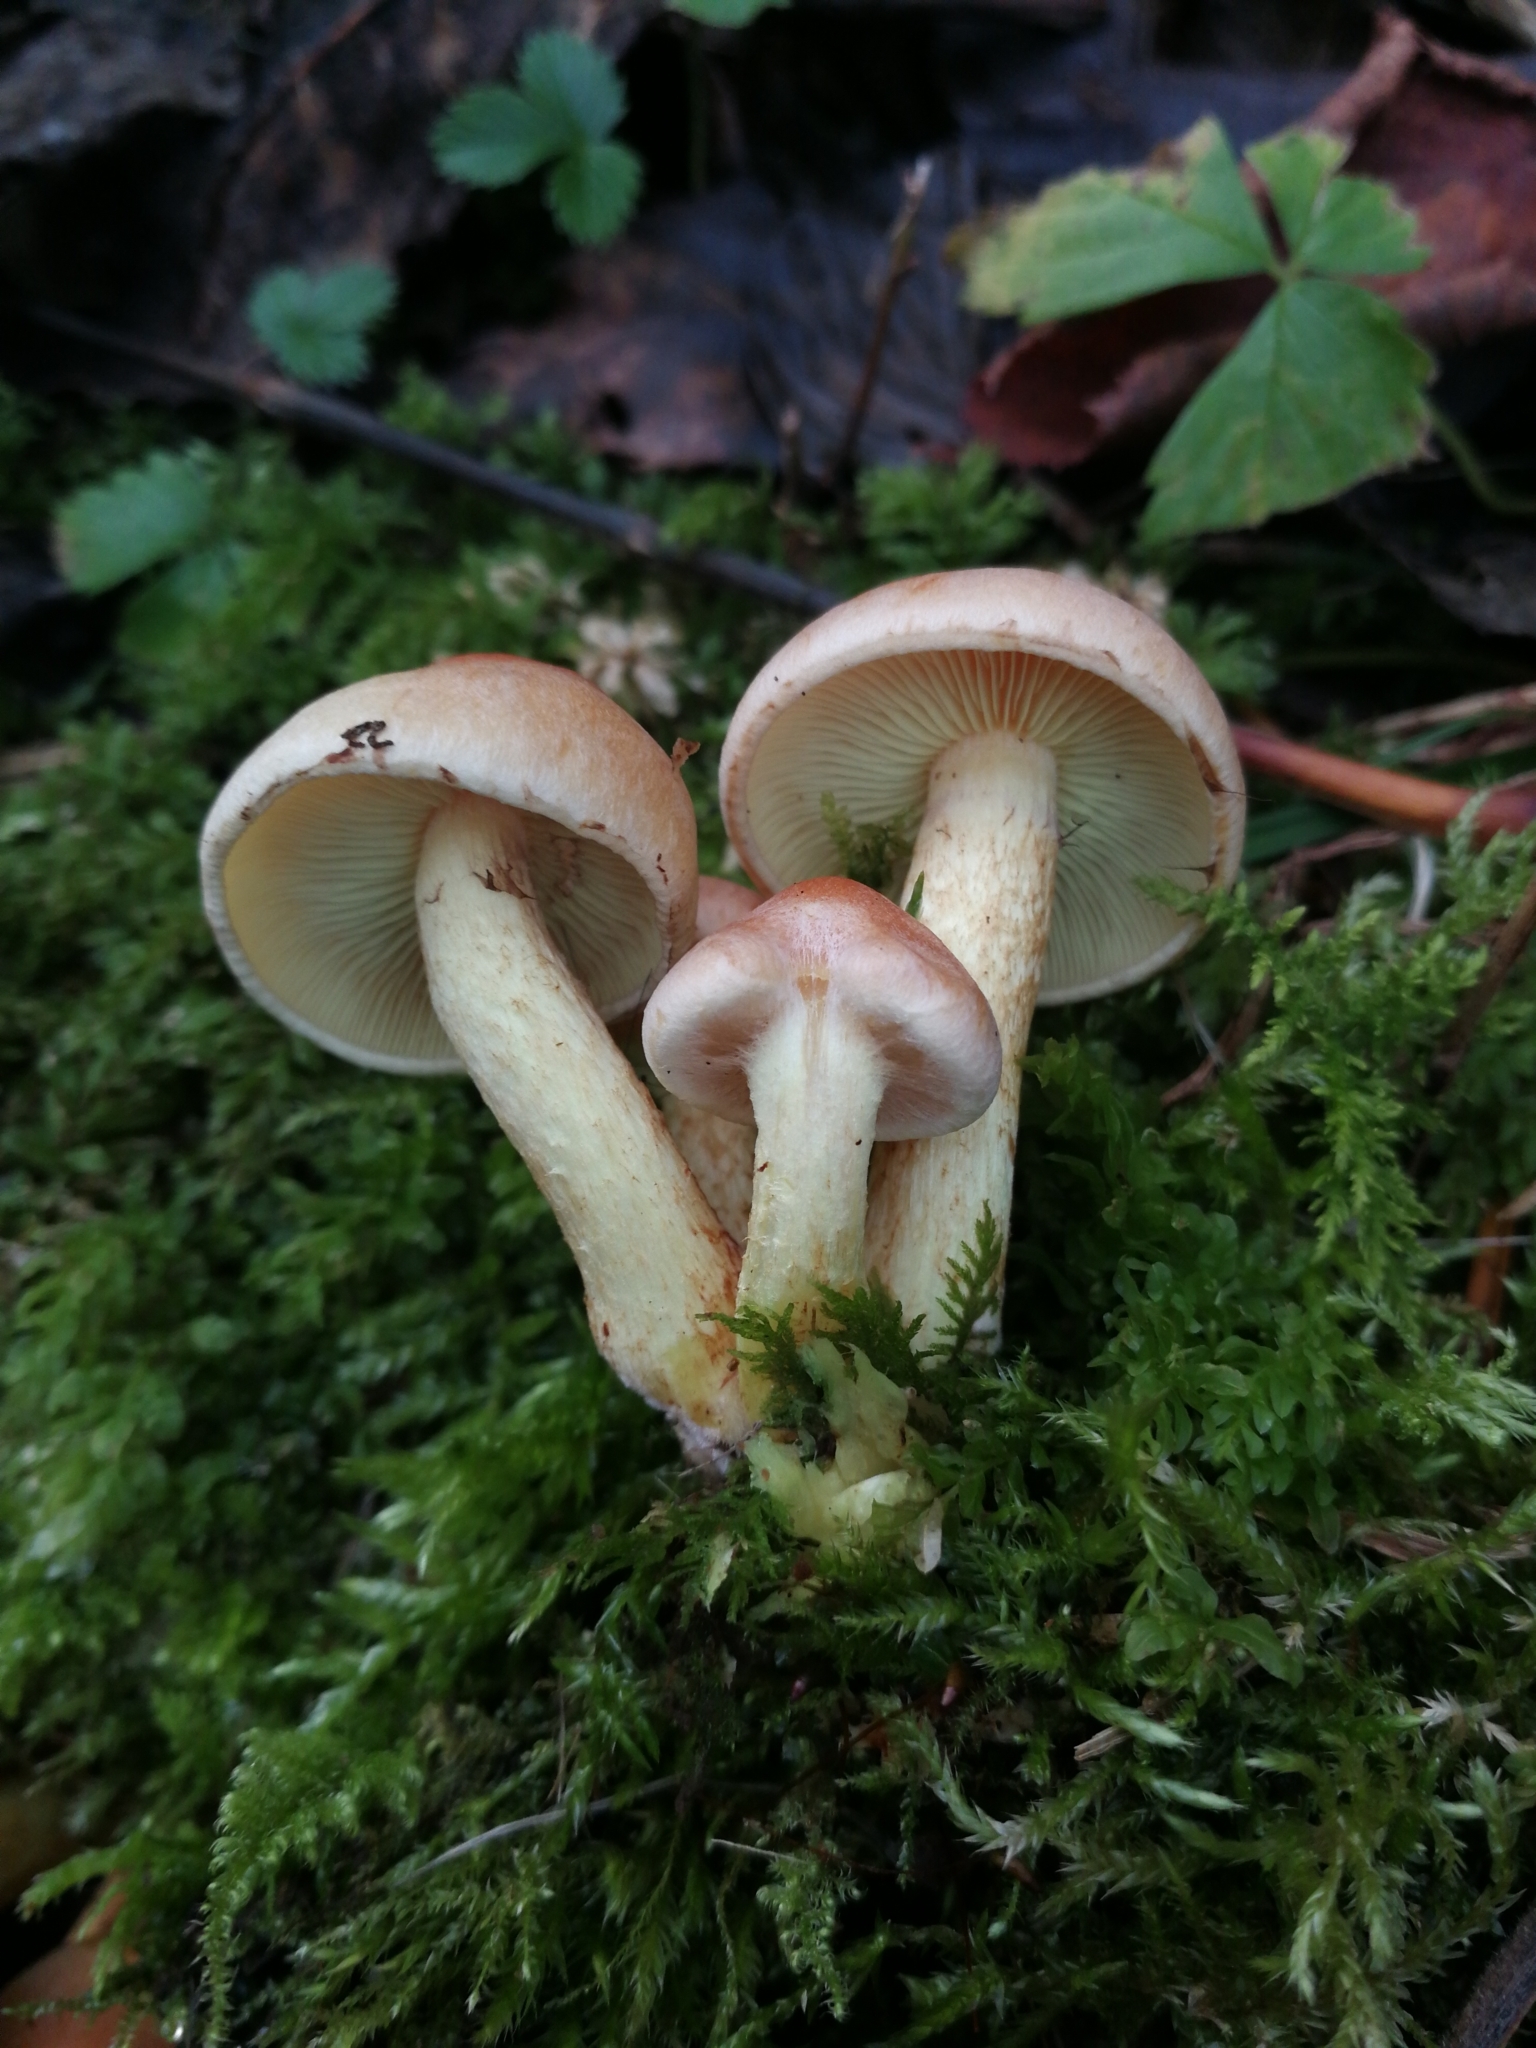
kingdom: Fungi
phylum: Basidiomycota
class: Agaricomycetes
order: Agaricales
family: Strophariaceae
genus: Hypholoma
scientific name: Hypholoma lateritium
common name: Brick caps
